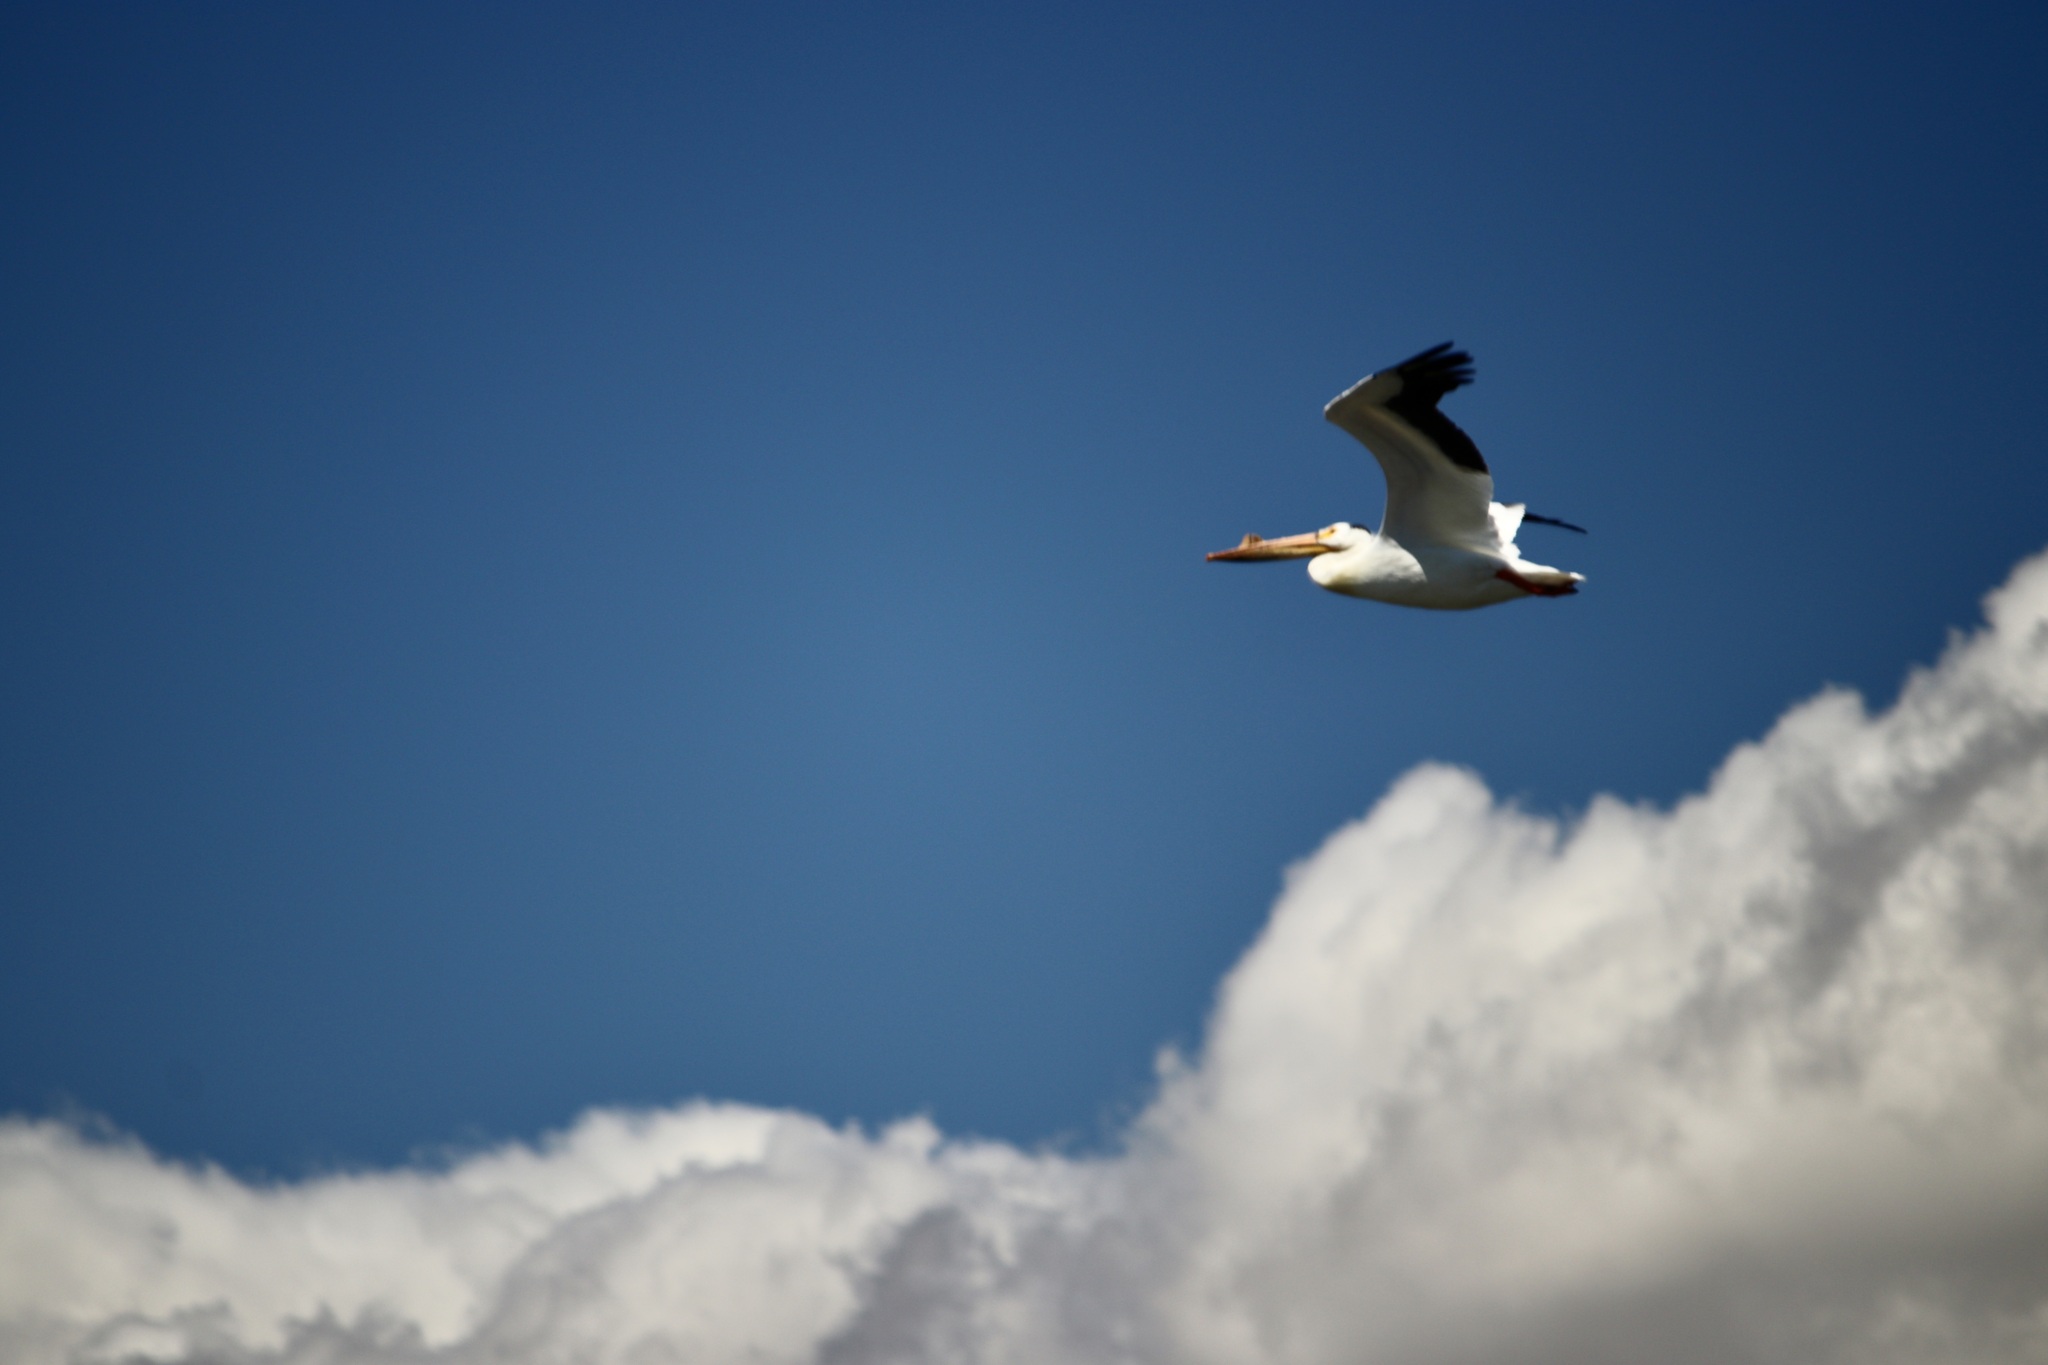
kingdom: Animalia
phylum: Chordata
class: Aves
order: Pelecaniformes
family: Pelecanidae
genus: Pelecanus
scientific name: Pelecanus erythrorhynchos
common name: American white pelican
